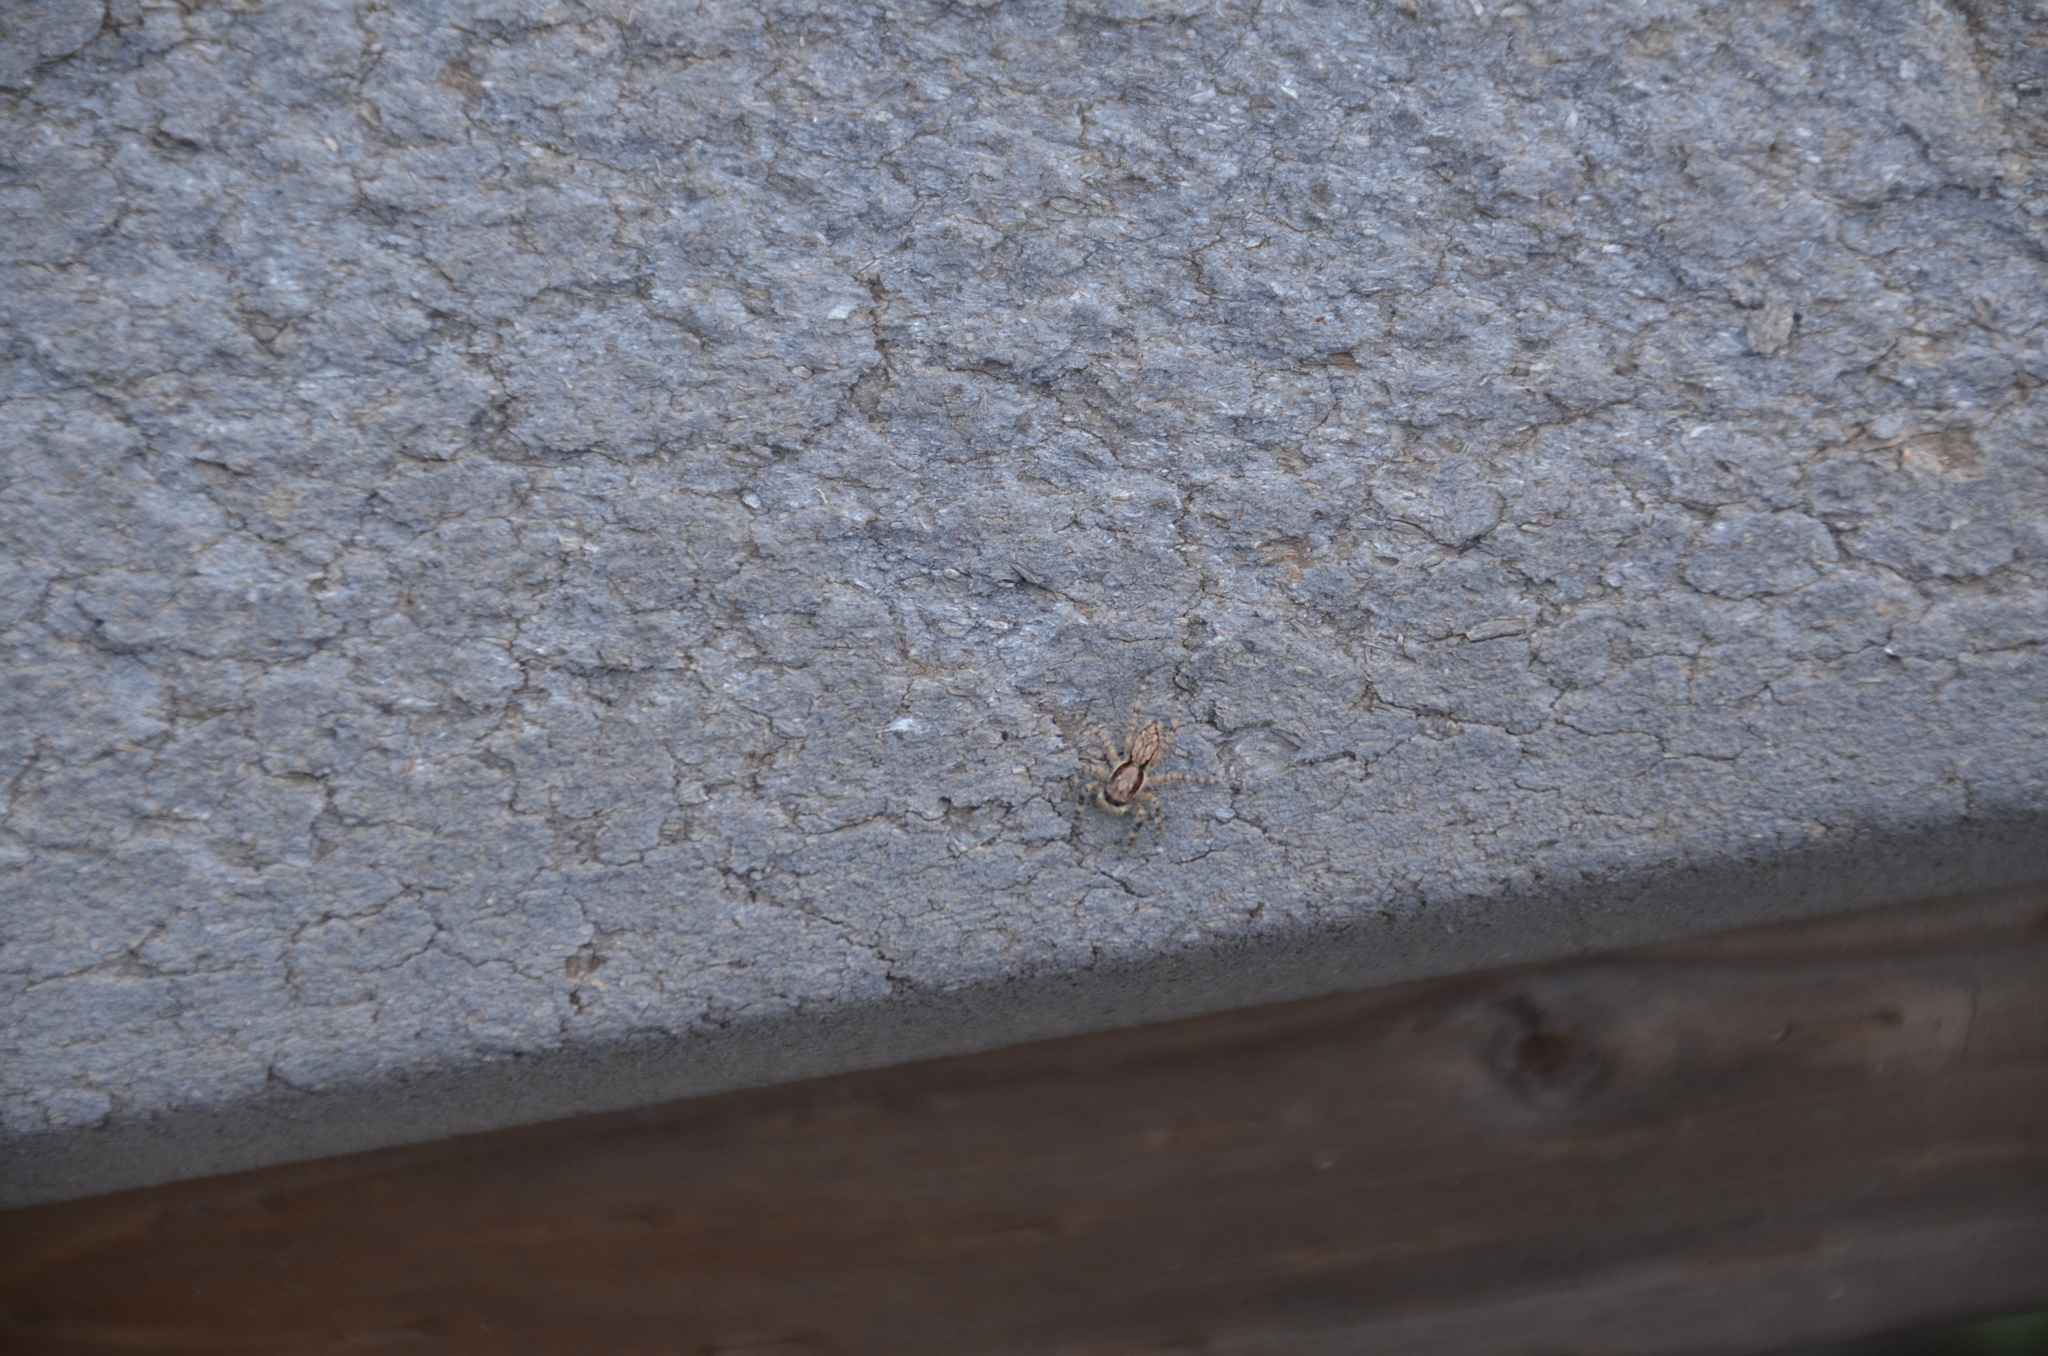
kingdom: Animalia
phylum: Arthropoda
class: Arachnida
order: Araneae
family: Salticidae
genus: Menemerus
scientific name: Menemerus bivittatus
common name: Gray wall jumper
